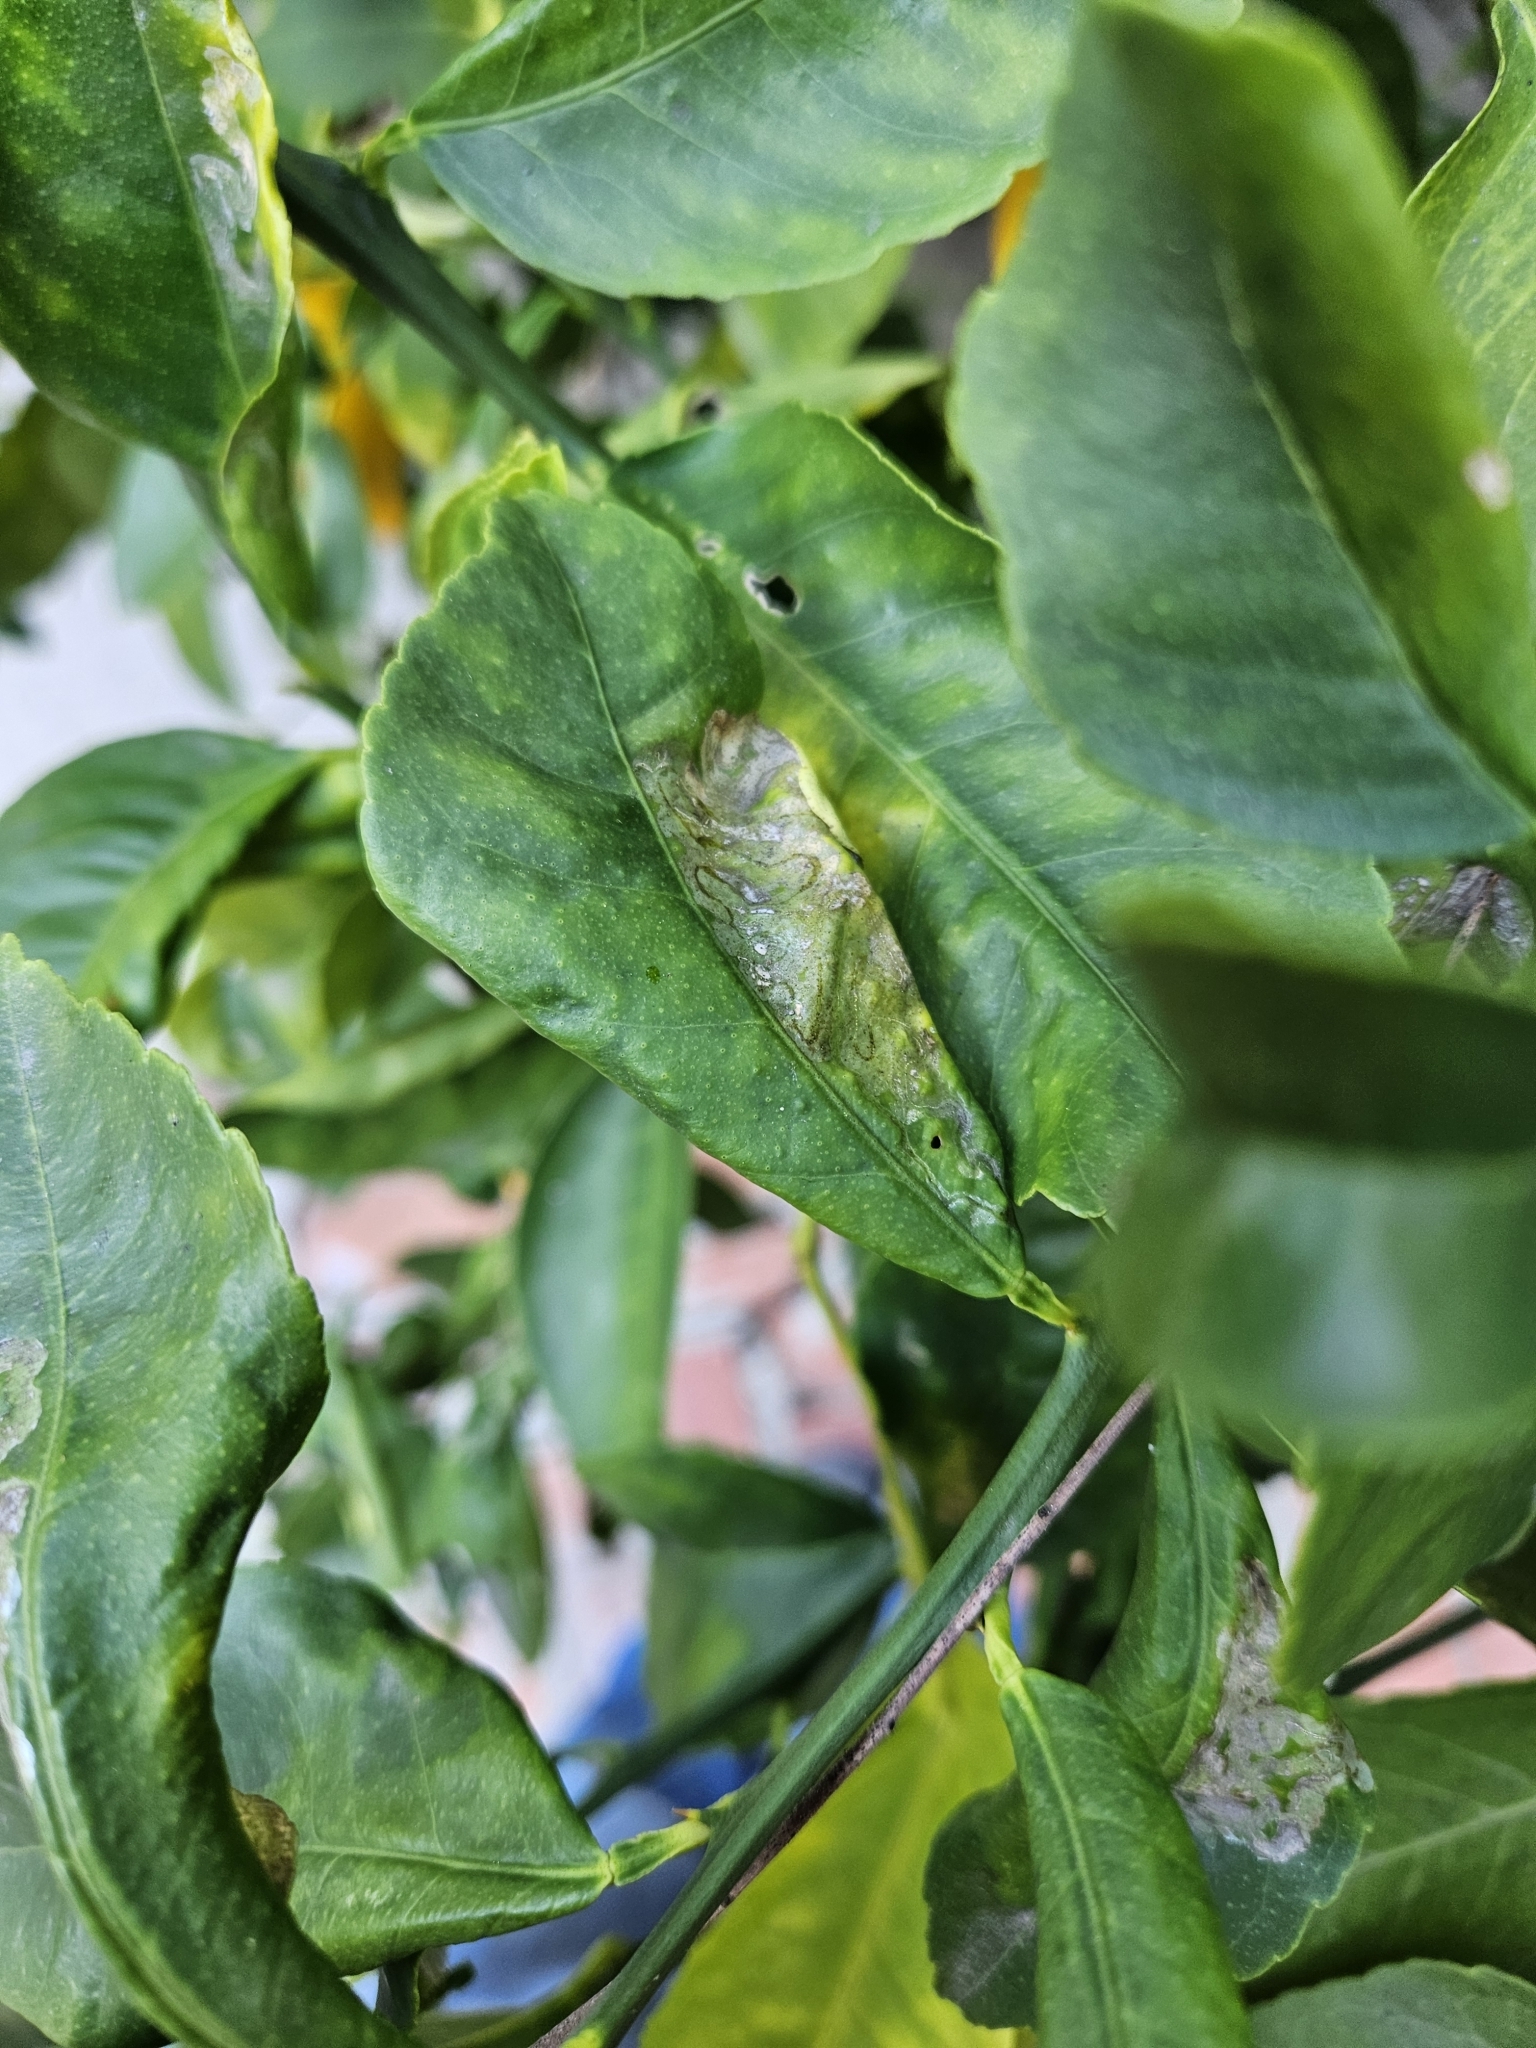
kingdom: Animalia
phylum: Arthropoda
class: Insecta
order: Lepidoptera
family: Gracillariidae
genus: Phyllocnistis
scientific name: Phyllocnistis citrella
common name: Citrus leafminer
